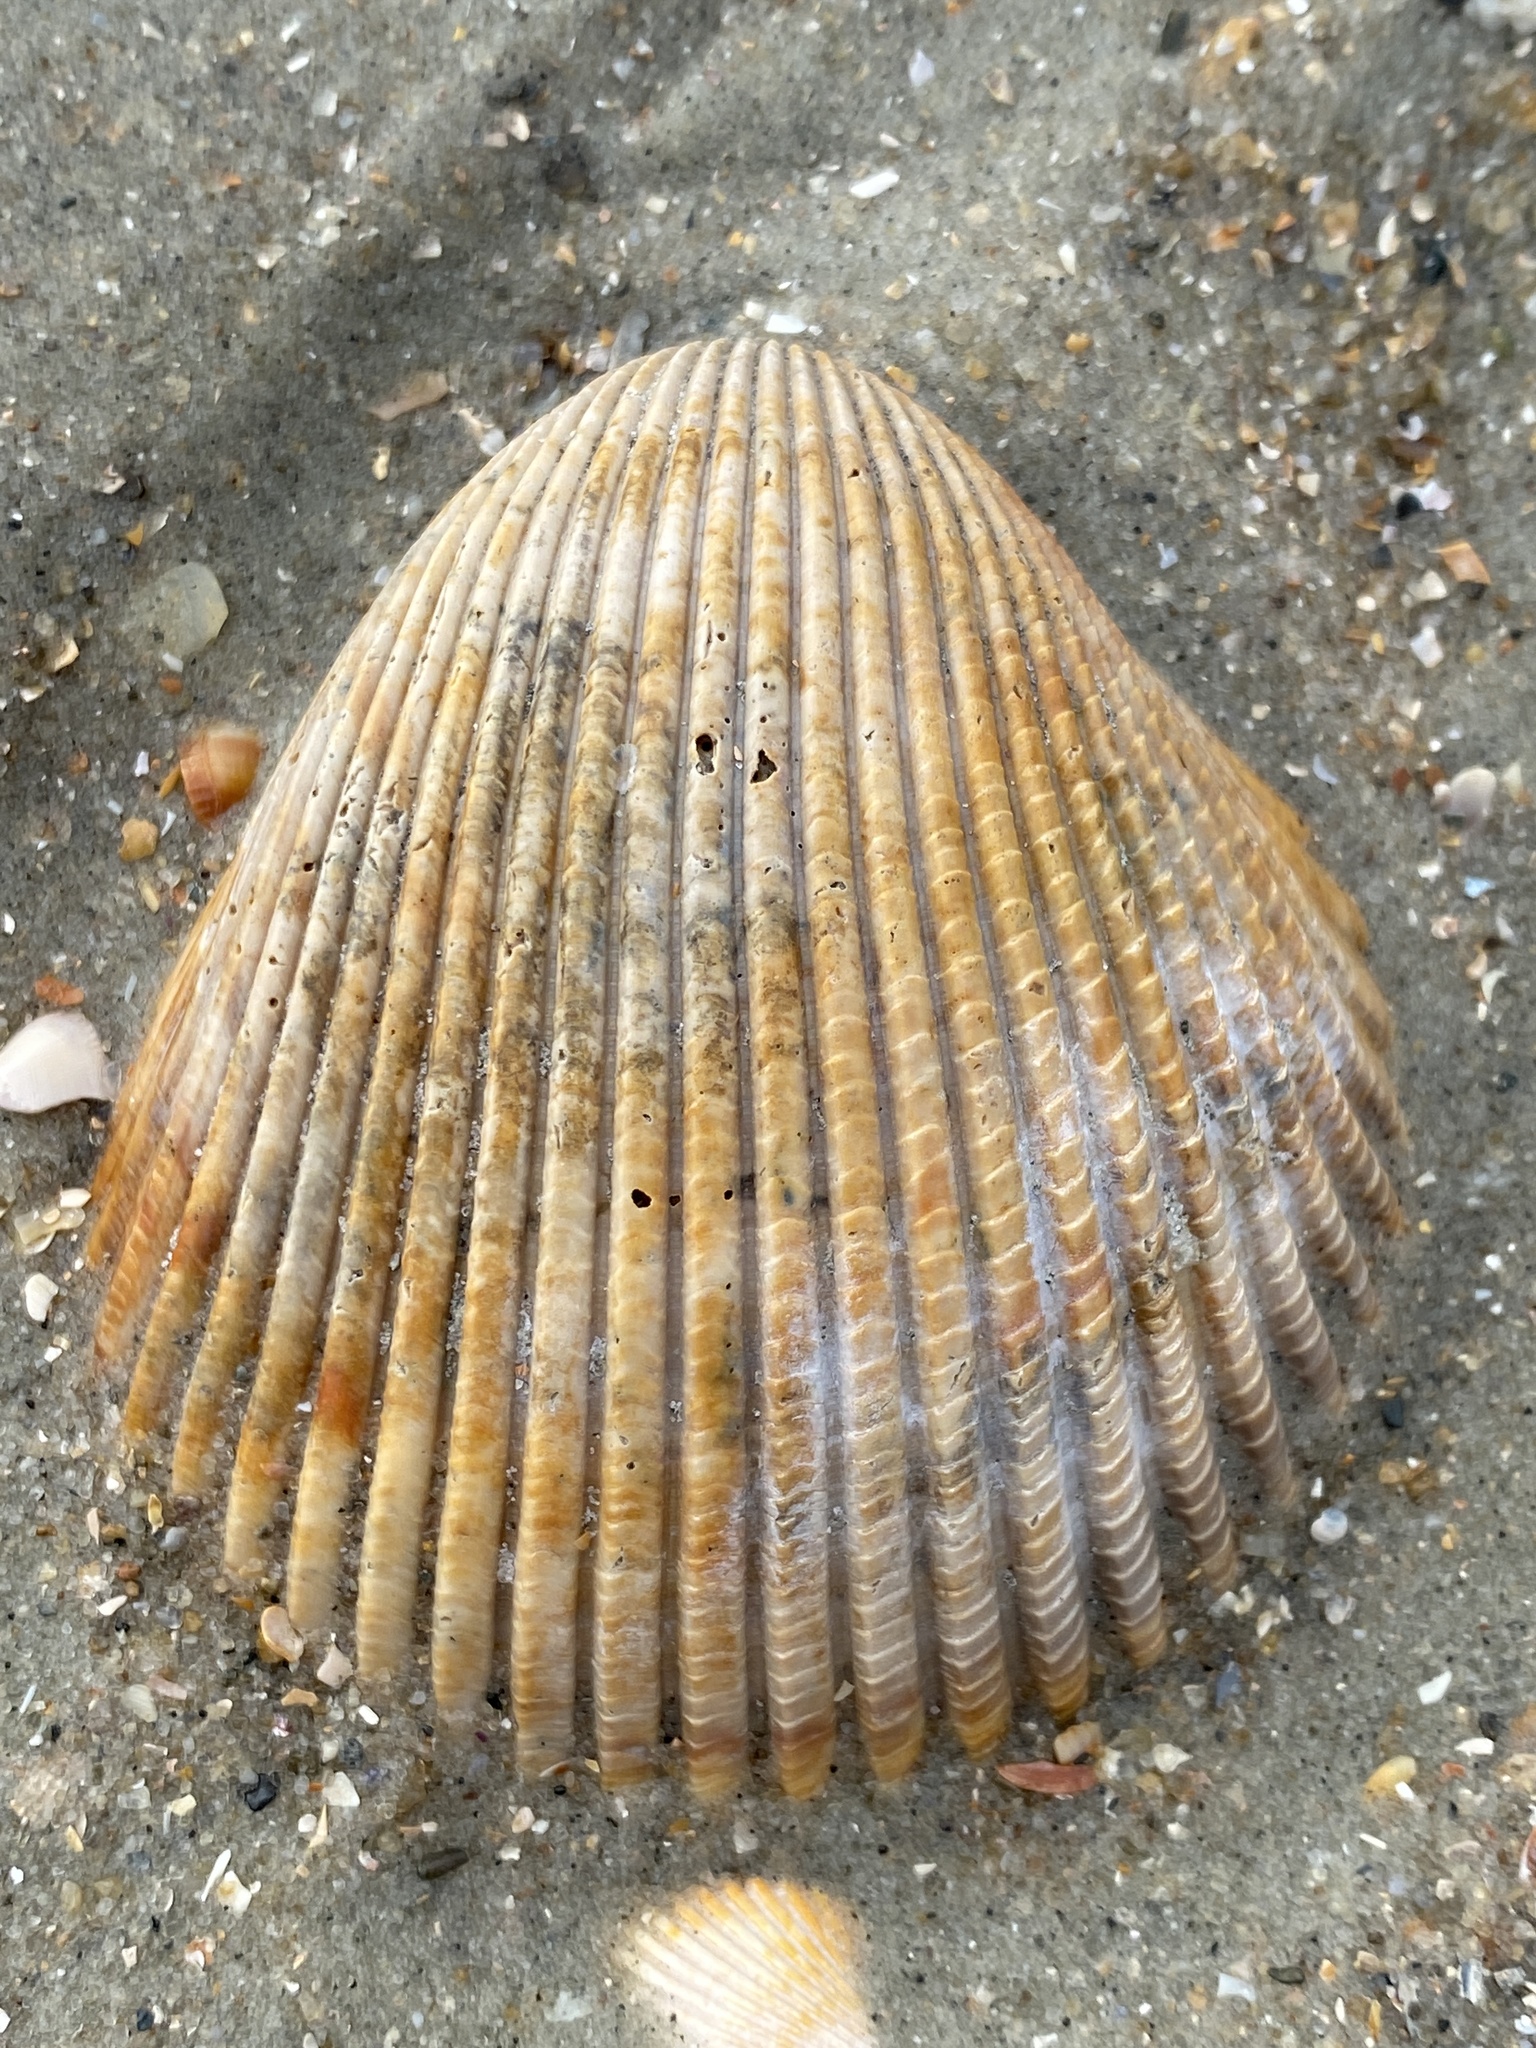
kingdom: Animalia
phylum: Mollusca
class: Bivalvia
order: Cardiida
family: Cardiidae
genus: Dinocardium
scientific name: Dinocardium robustum
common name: Atlantic giant cockle
